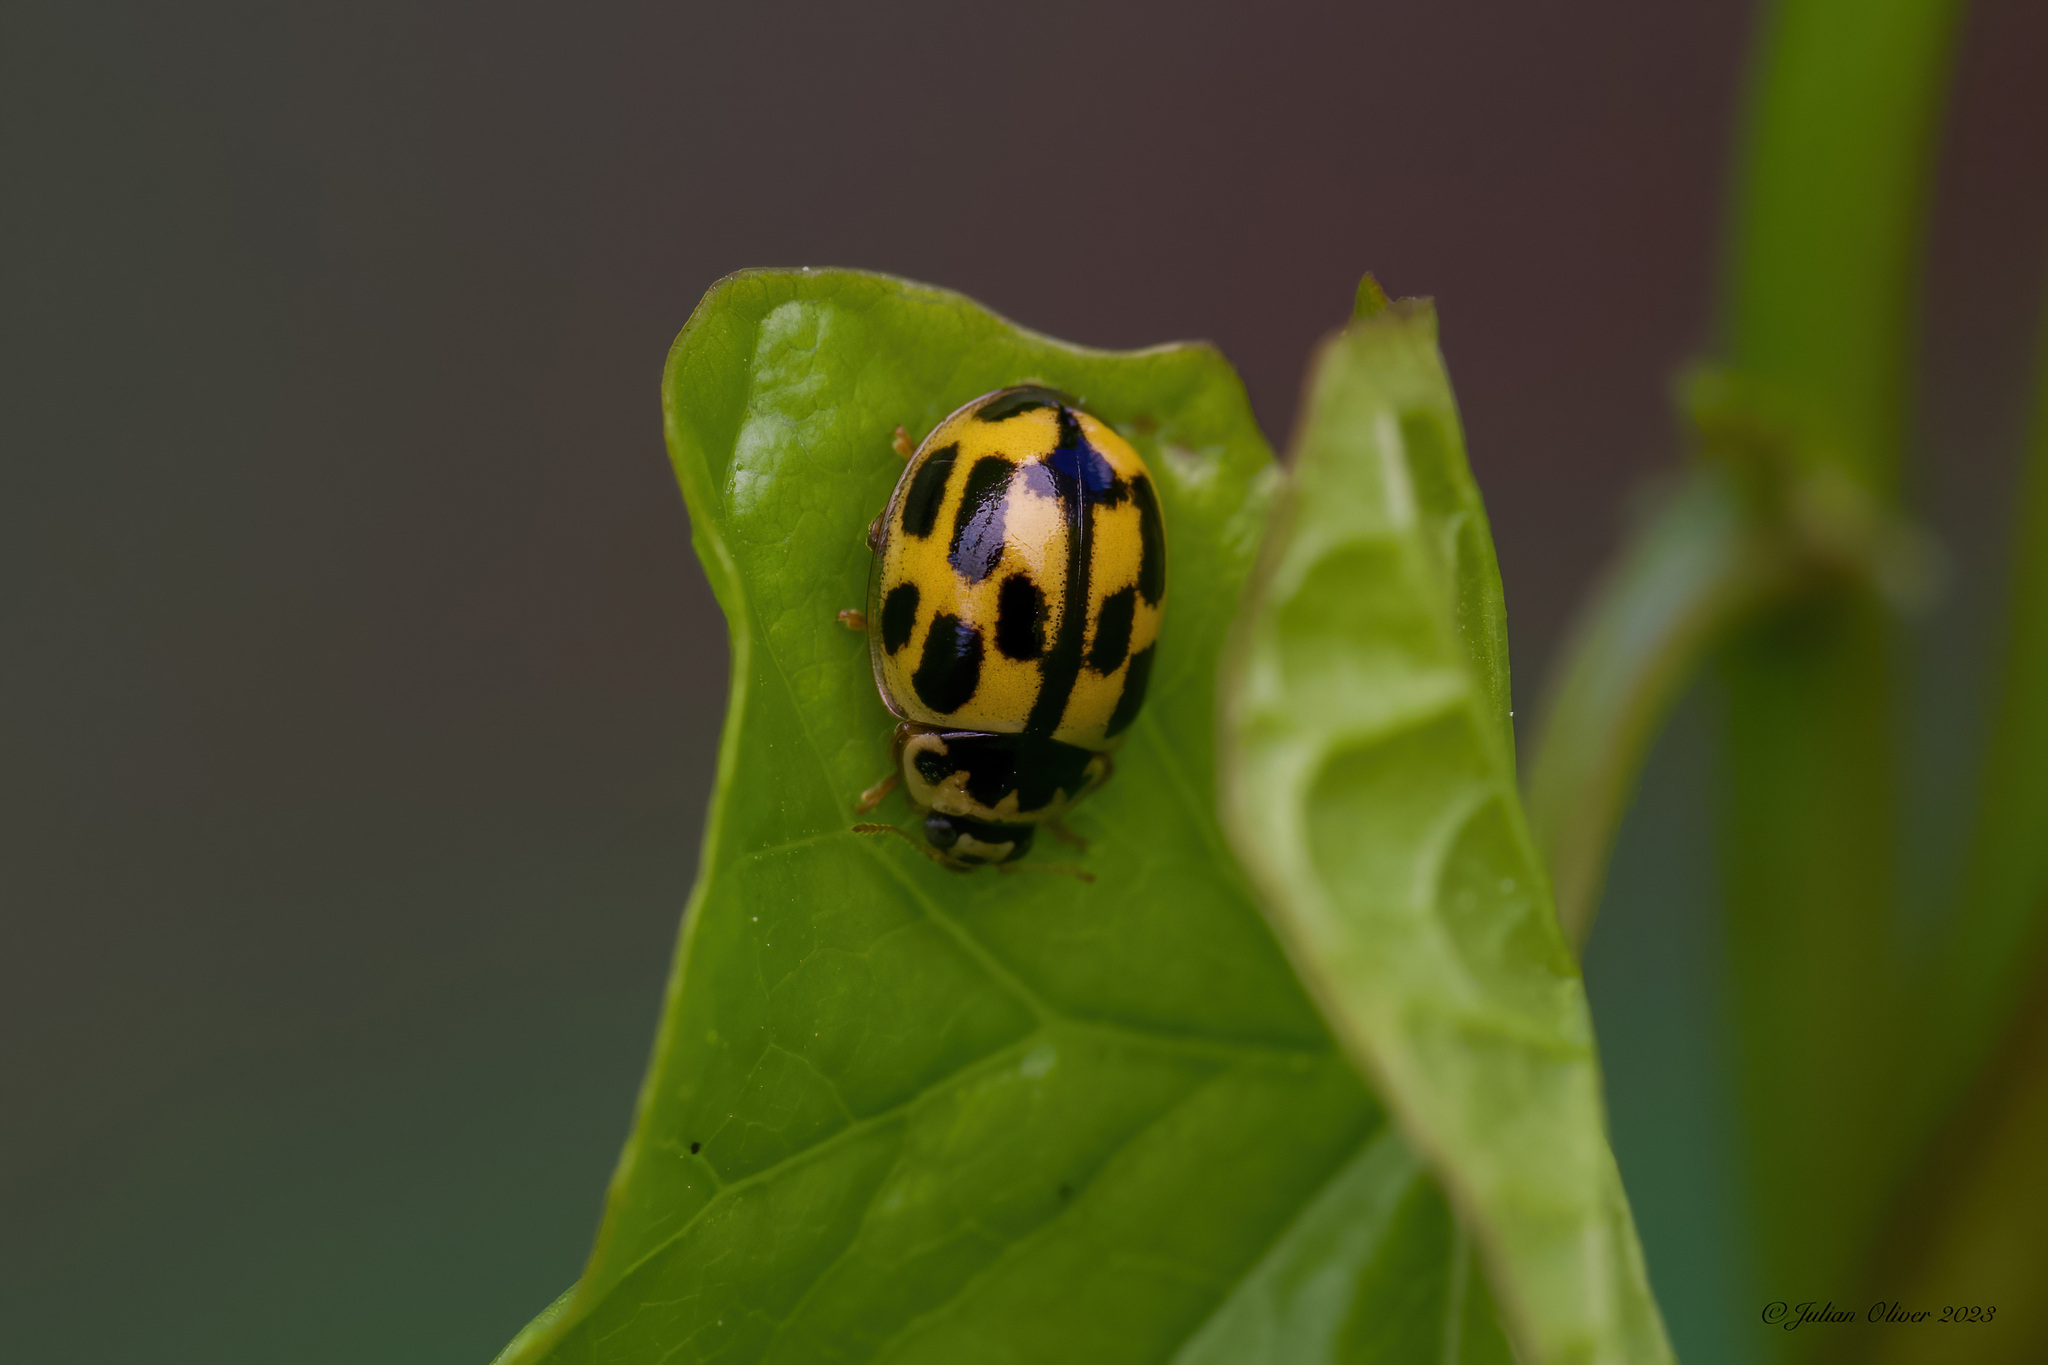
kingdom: Animalia
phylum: Arthropoda
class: Insecta
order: Coleoptera
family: Coccinellidae
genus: Propylaea
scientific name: Propylaea quatuordecimpunctata
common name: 14-spotted ladybird beetle
